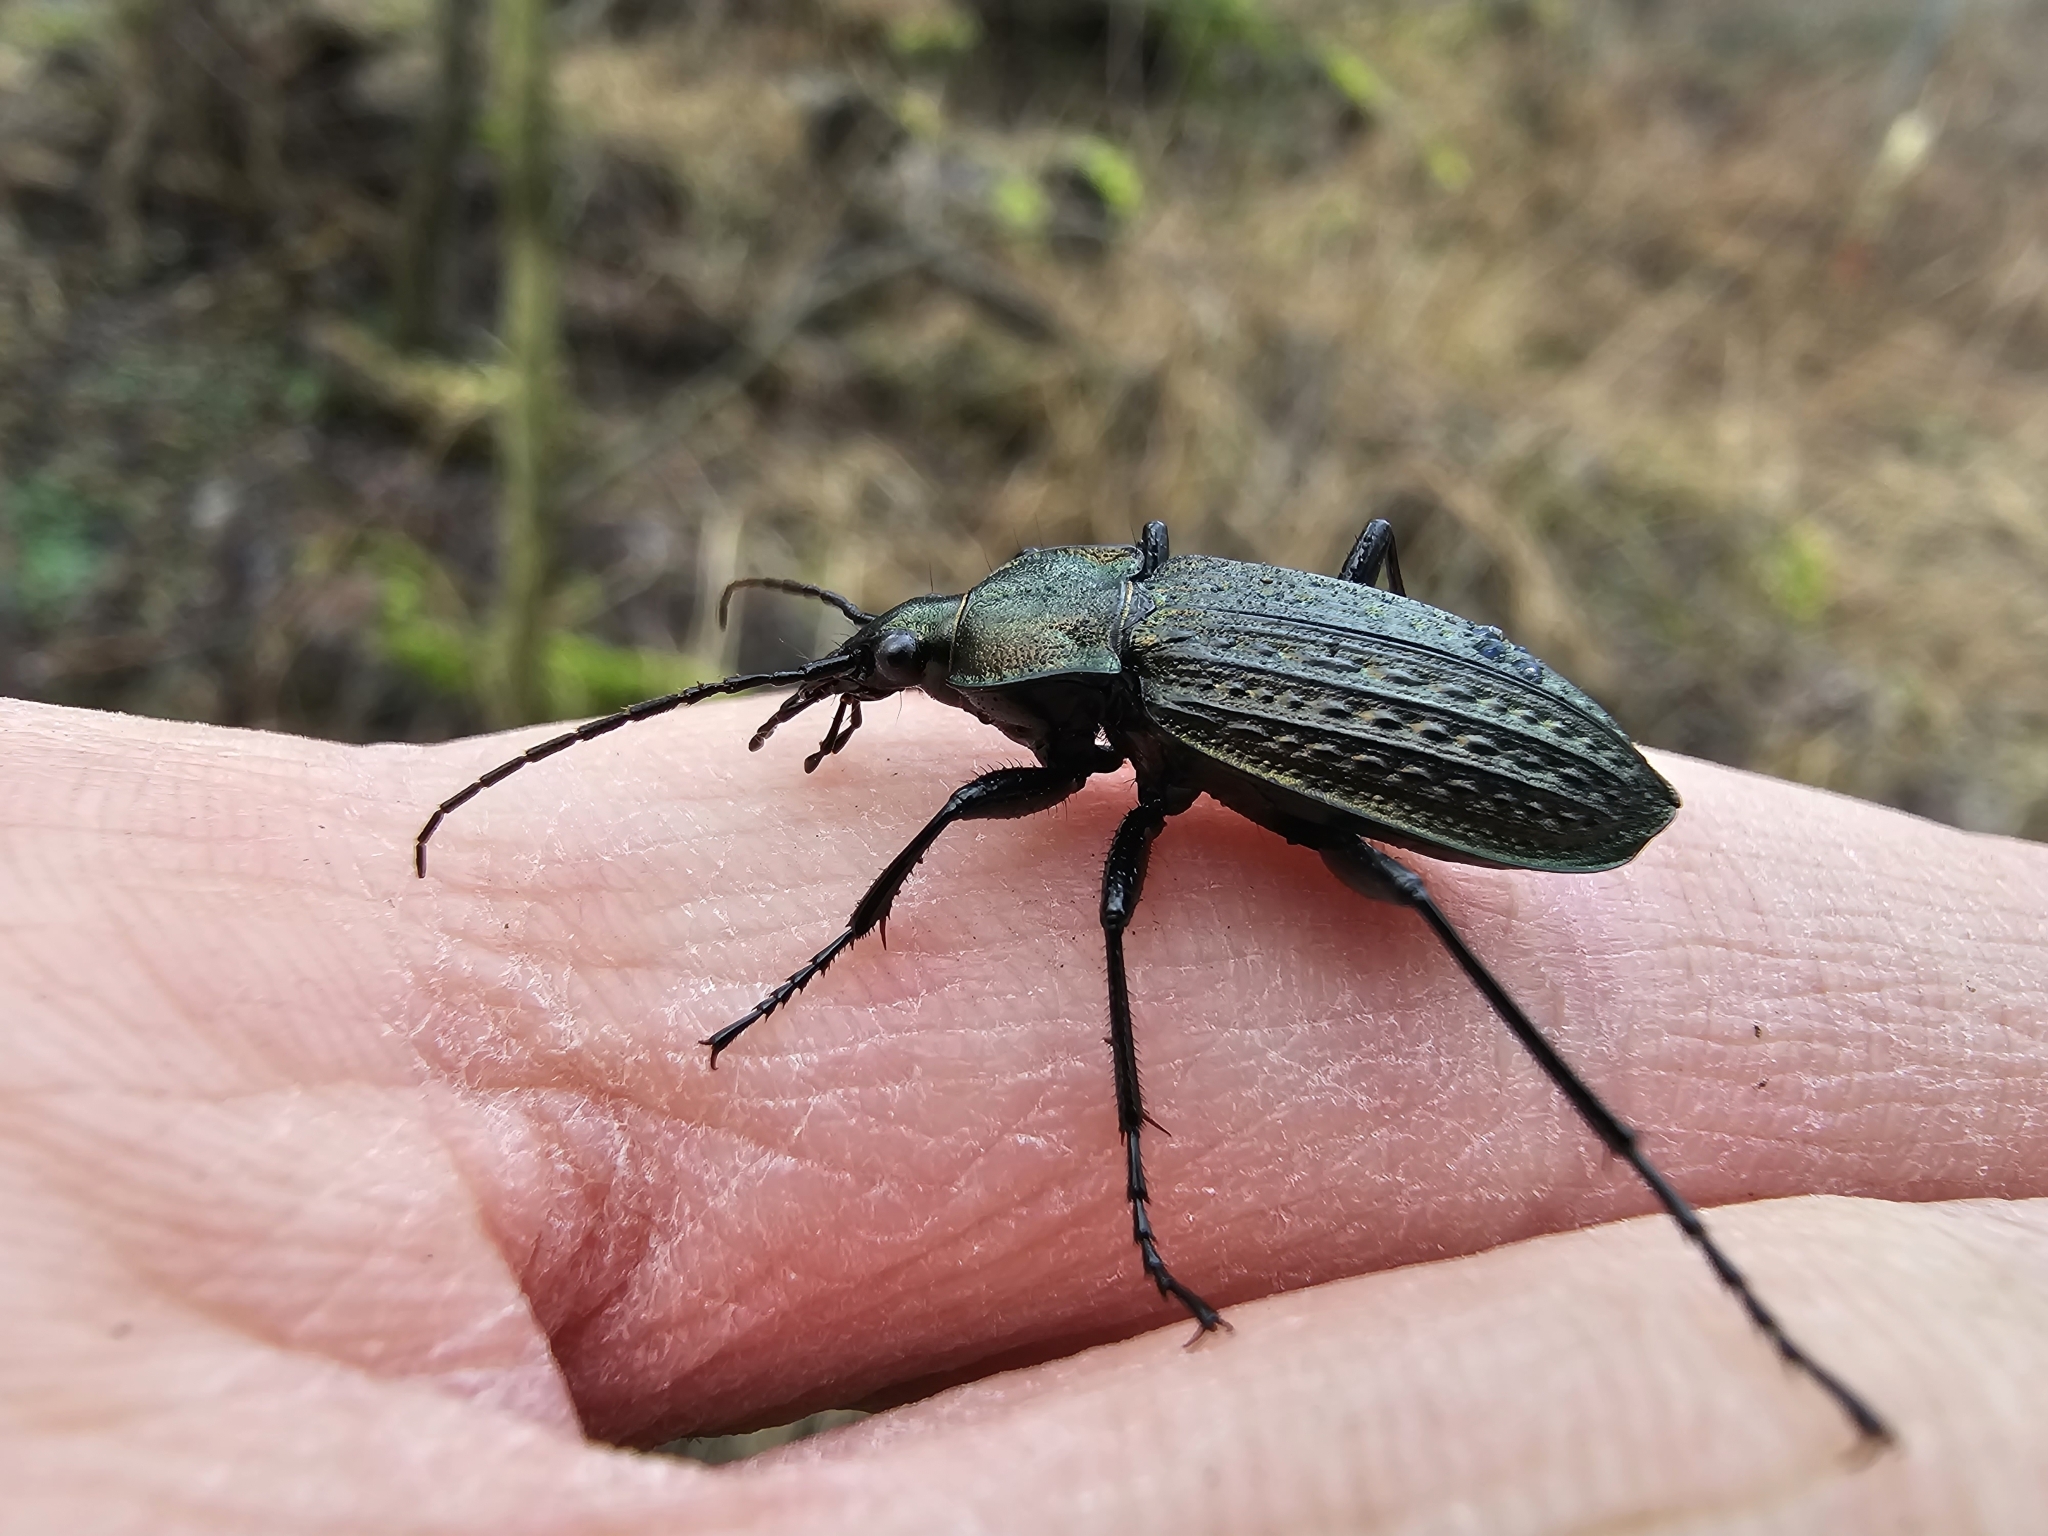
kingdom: Animalia
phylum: Arthropoda
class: Insecta
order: Coleoptera
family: Carabidae
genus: Carabus
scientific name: Carabus granulatus
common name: Granulate ground beetle
